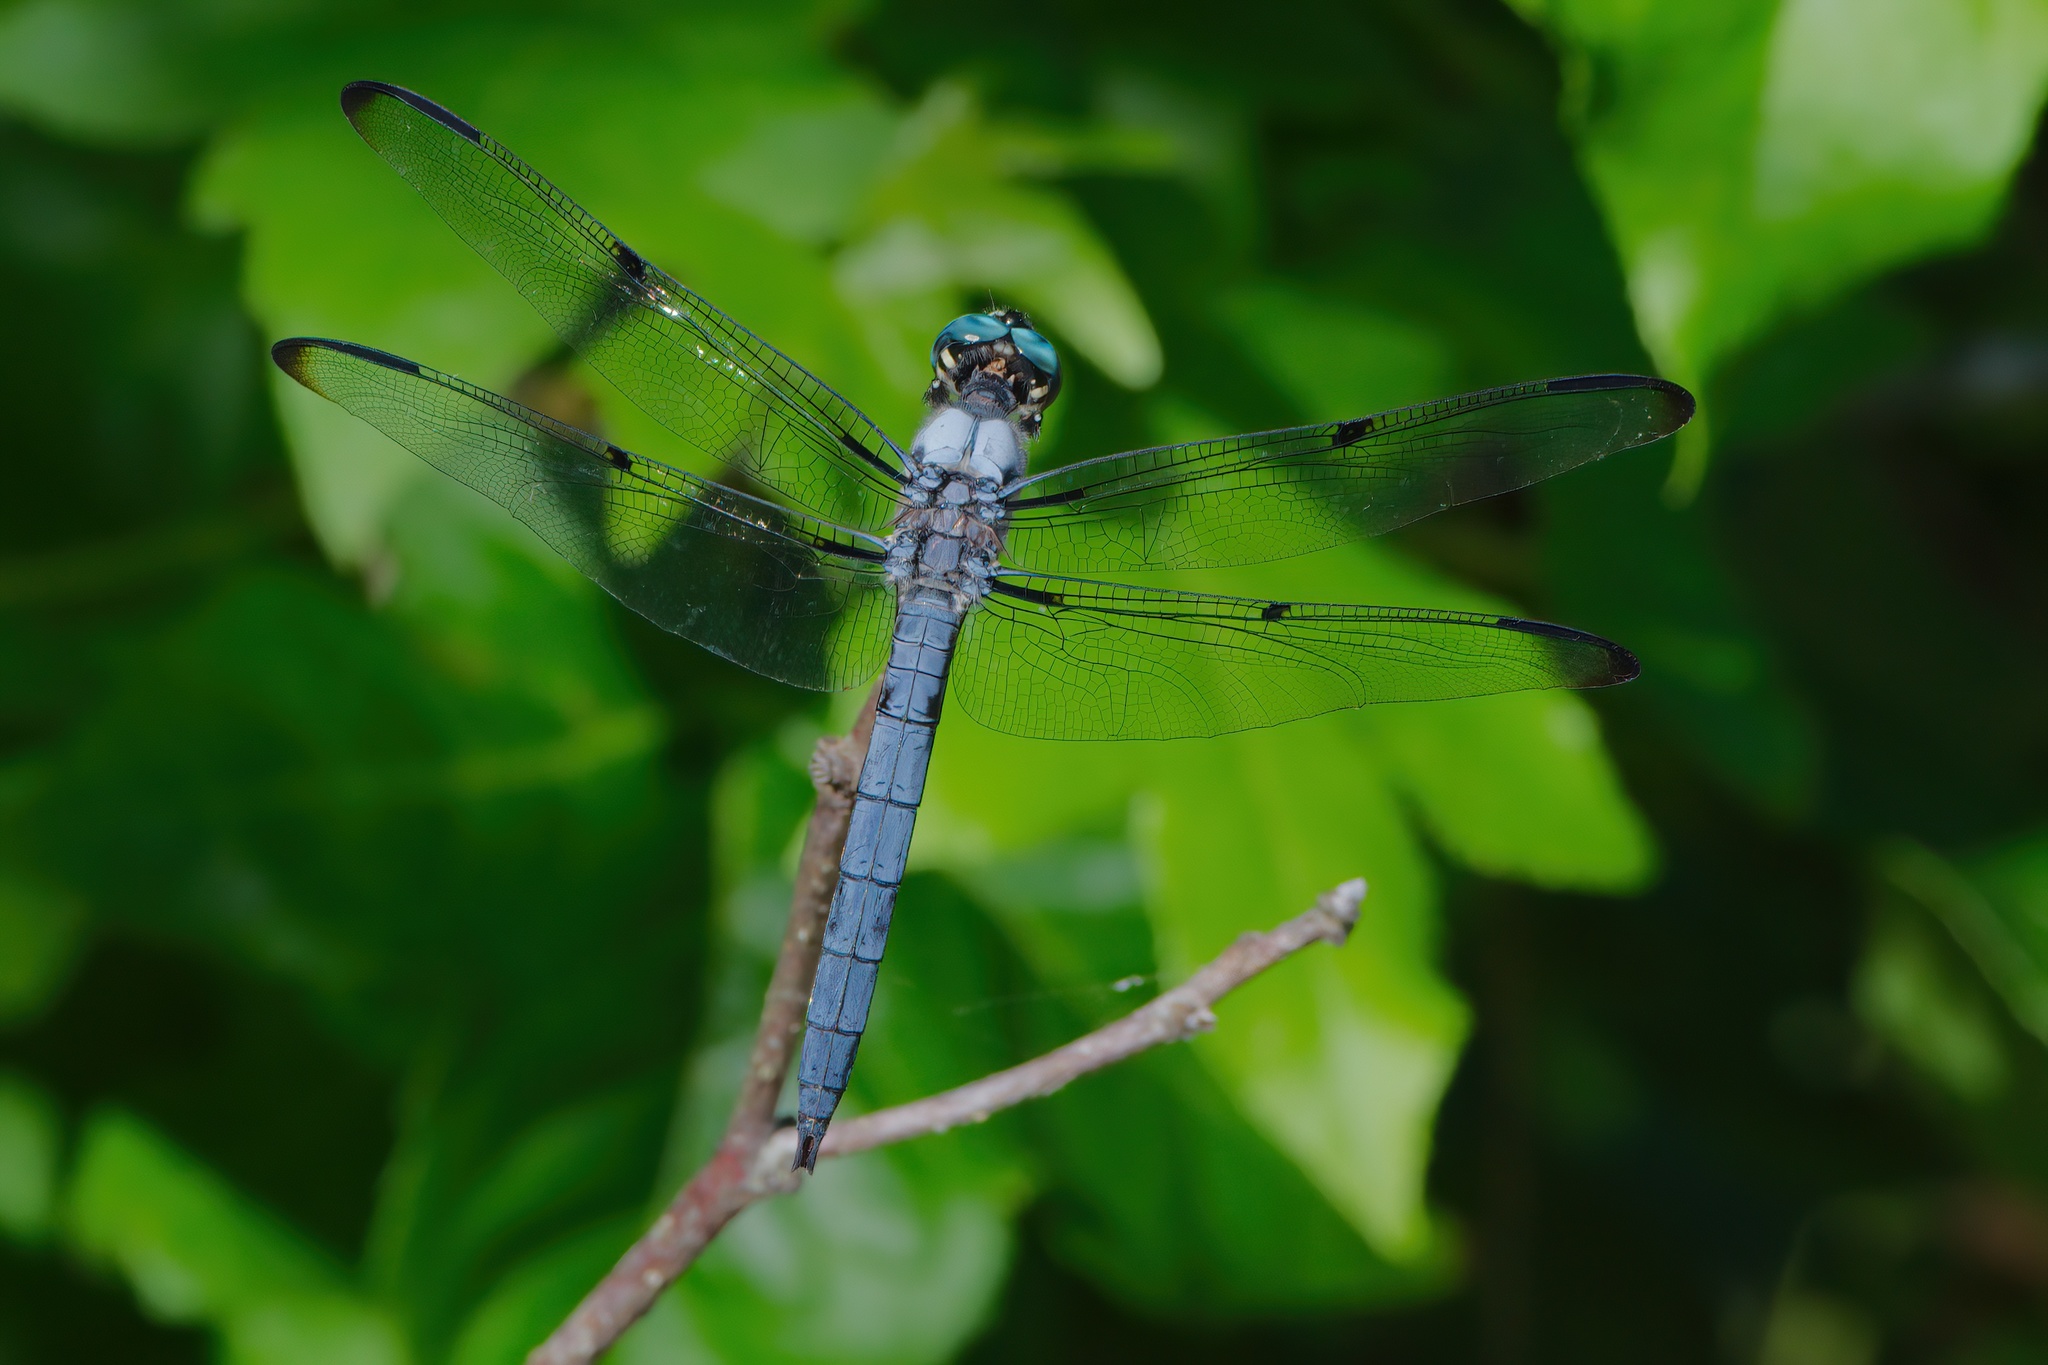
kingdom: Animalia
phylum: Arthropoda
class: Insecta
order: Odonata
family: Libellulidae
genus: Libellula
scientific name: Libellula vibrans
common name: Great blue skimmer
